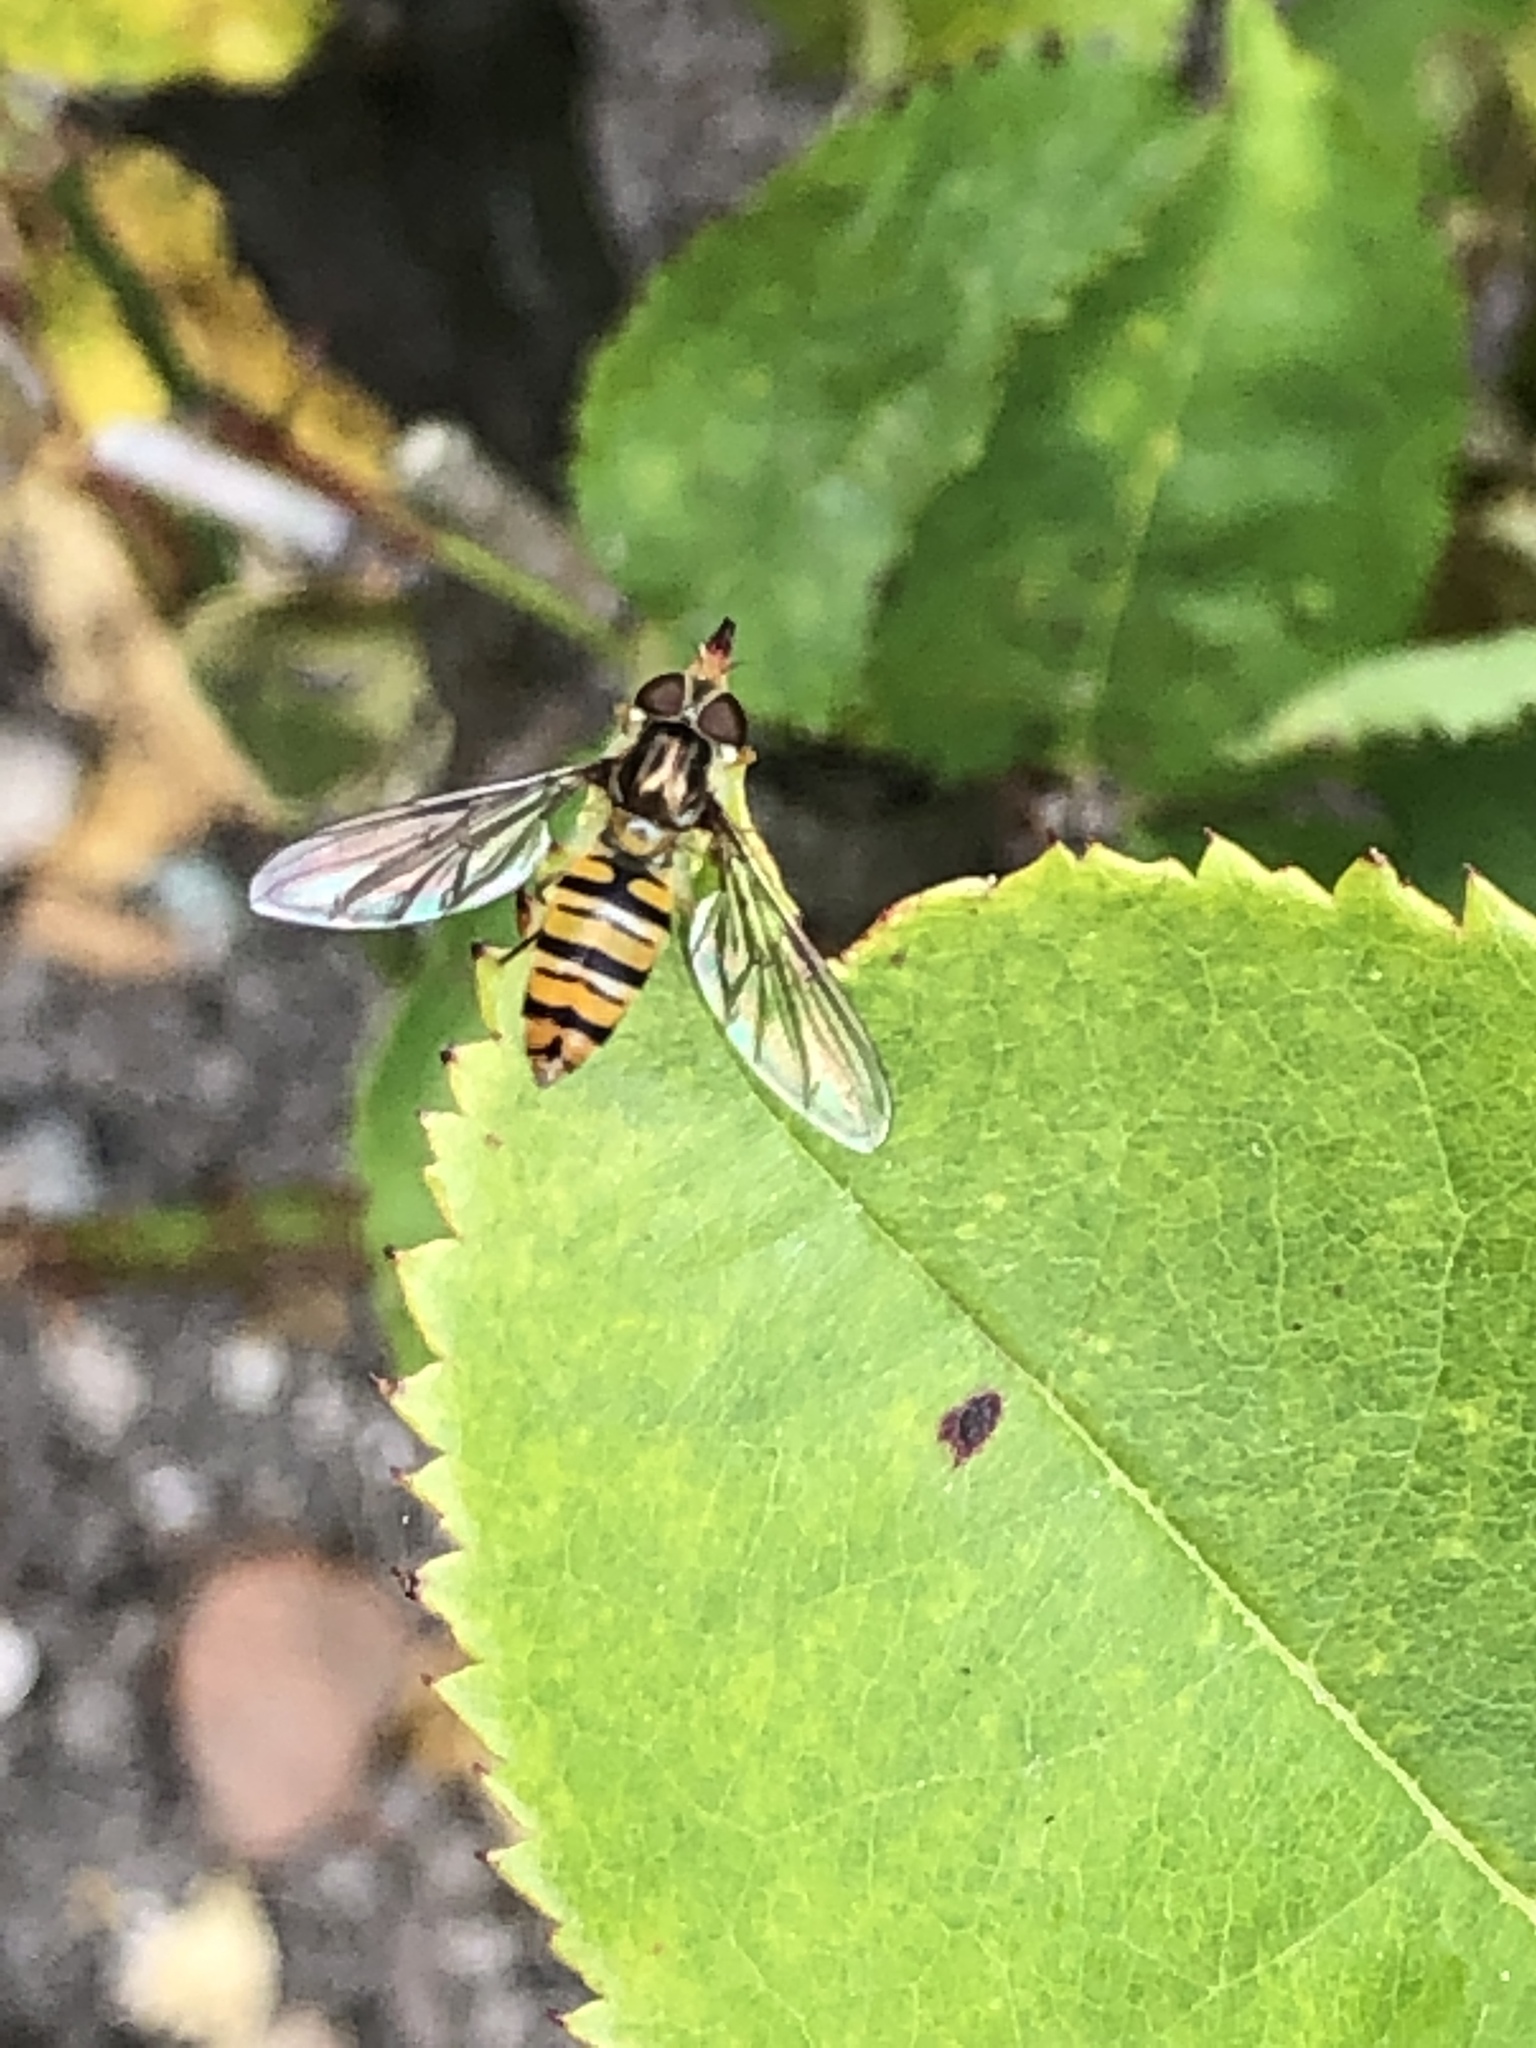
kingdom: Animalia
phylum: Arthropoda
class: Insecta
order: Diptera
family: Syrphidae
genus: Episyrphus
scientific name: Episyrphus balteatus
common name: Marmalade hoverfly
